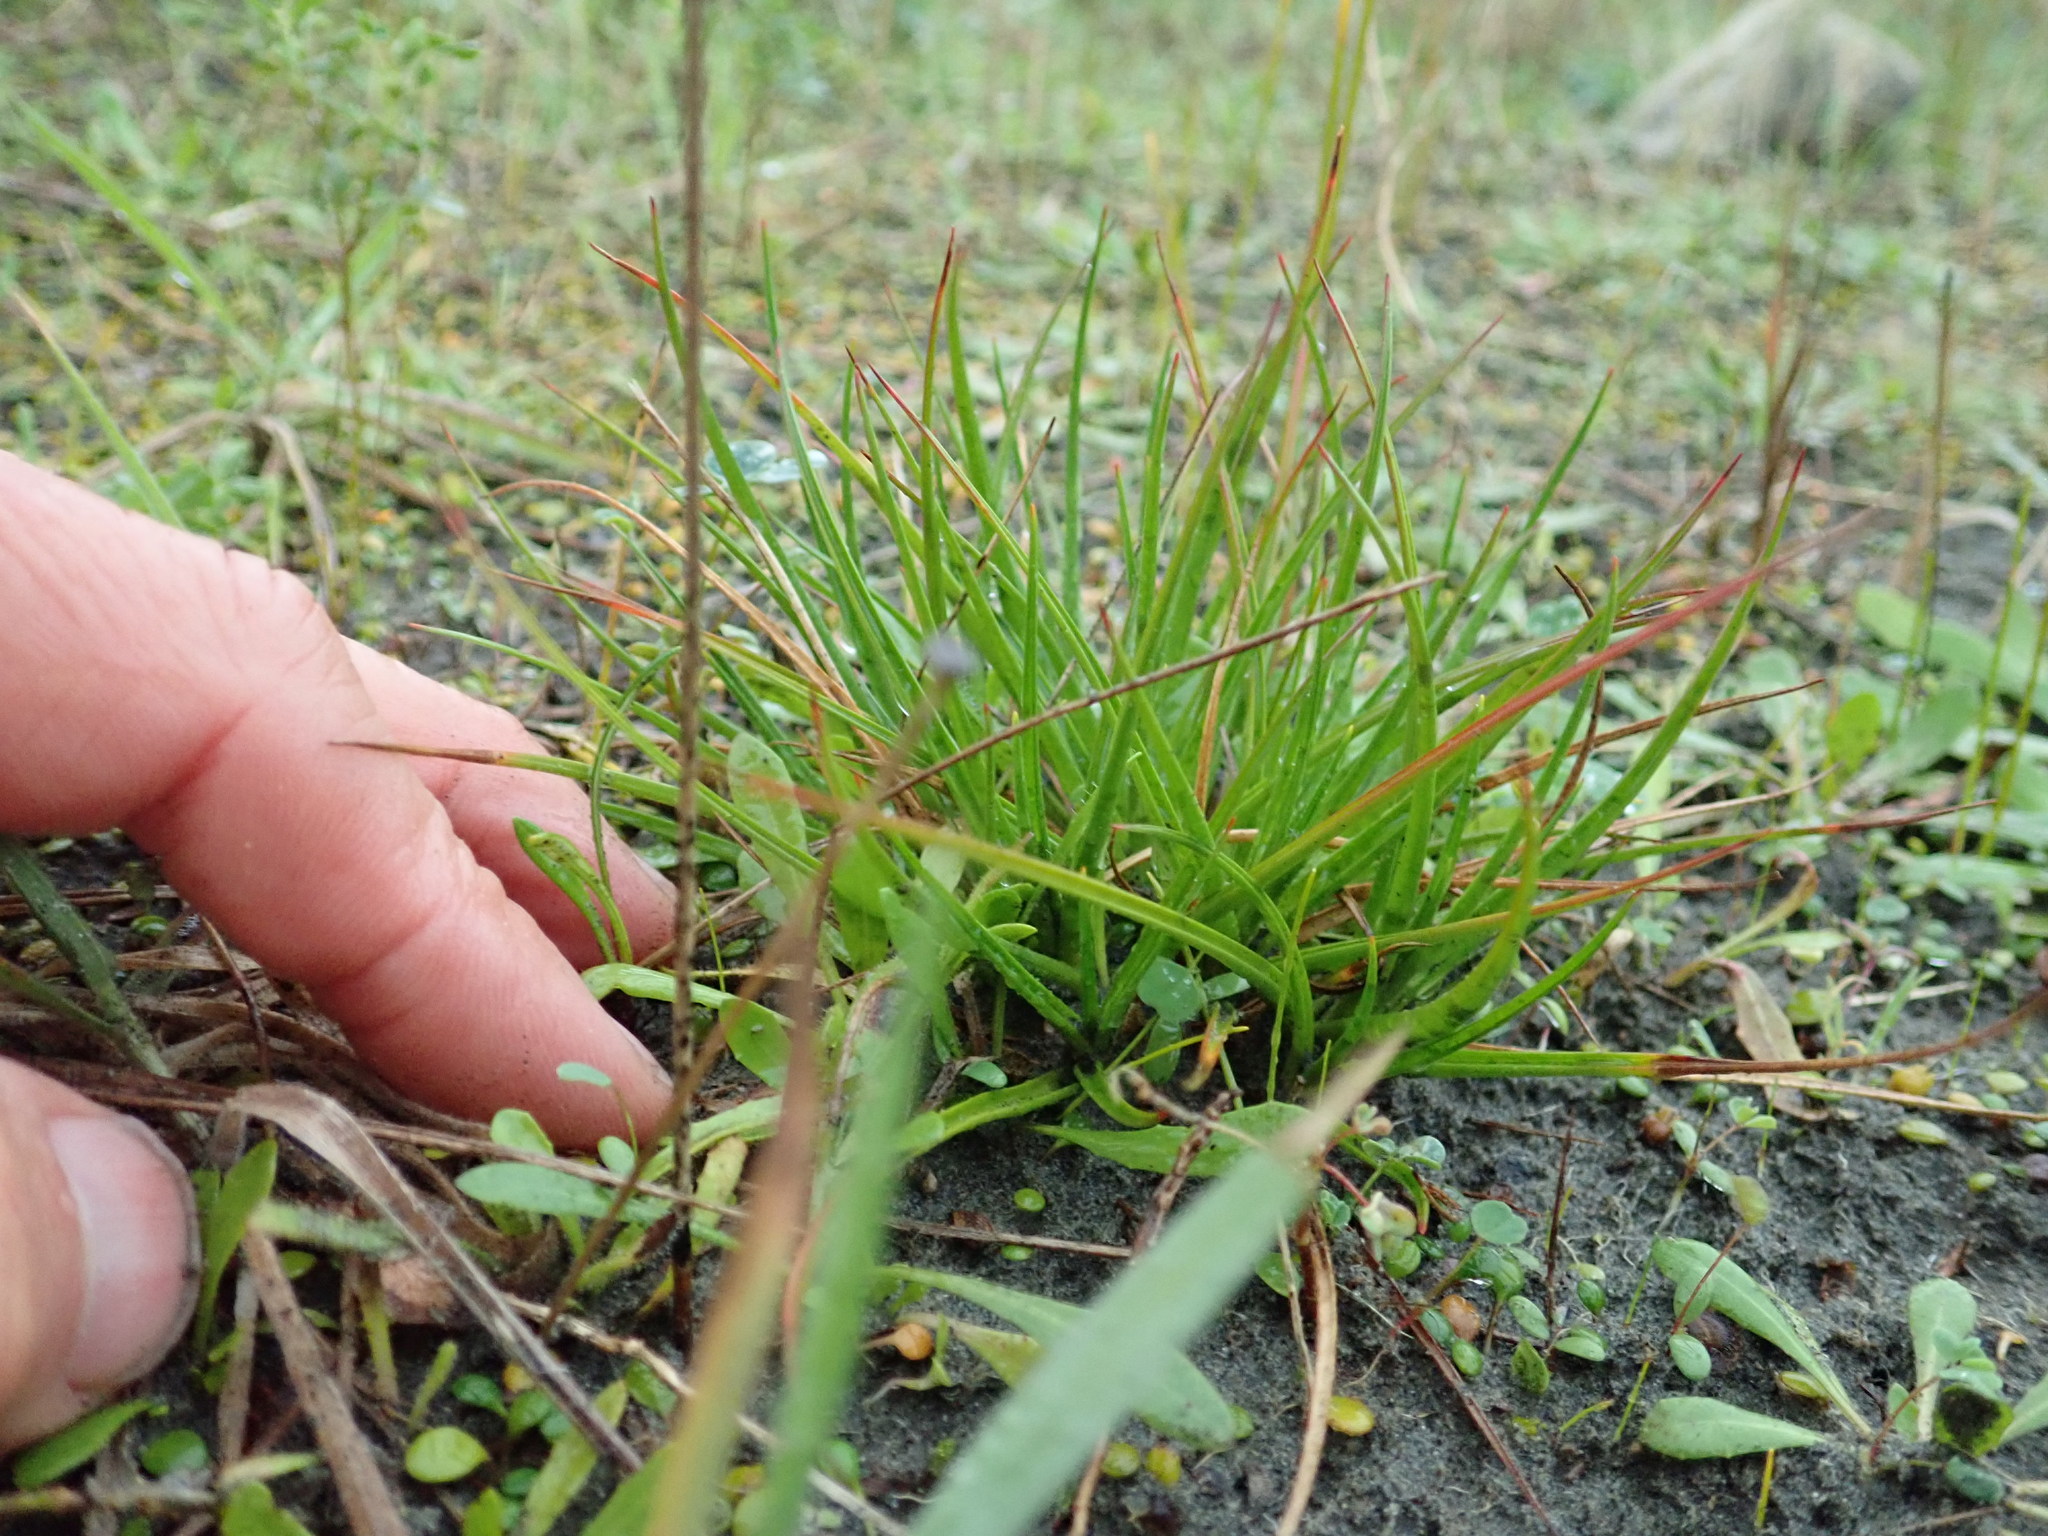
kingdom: Plantae
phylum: Tracheophyta
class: Liliopsida
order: Poales
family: Juncaceae
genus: Juncus
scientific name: Juncus caespiticius
